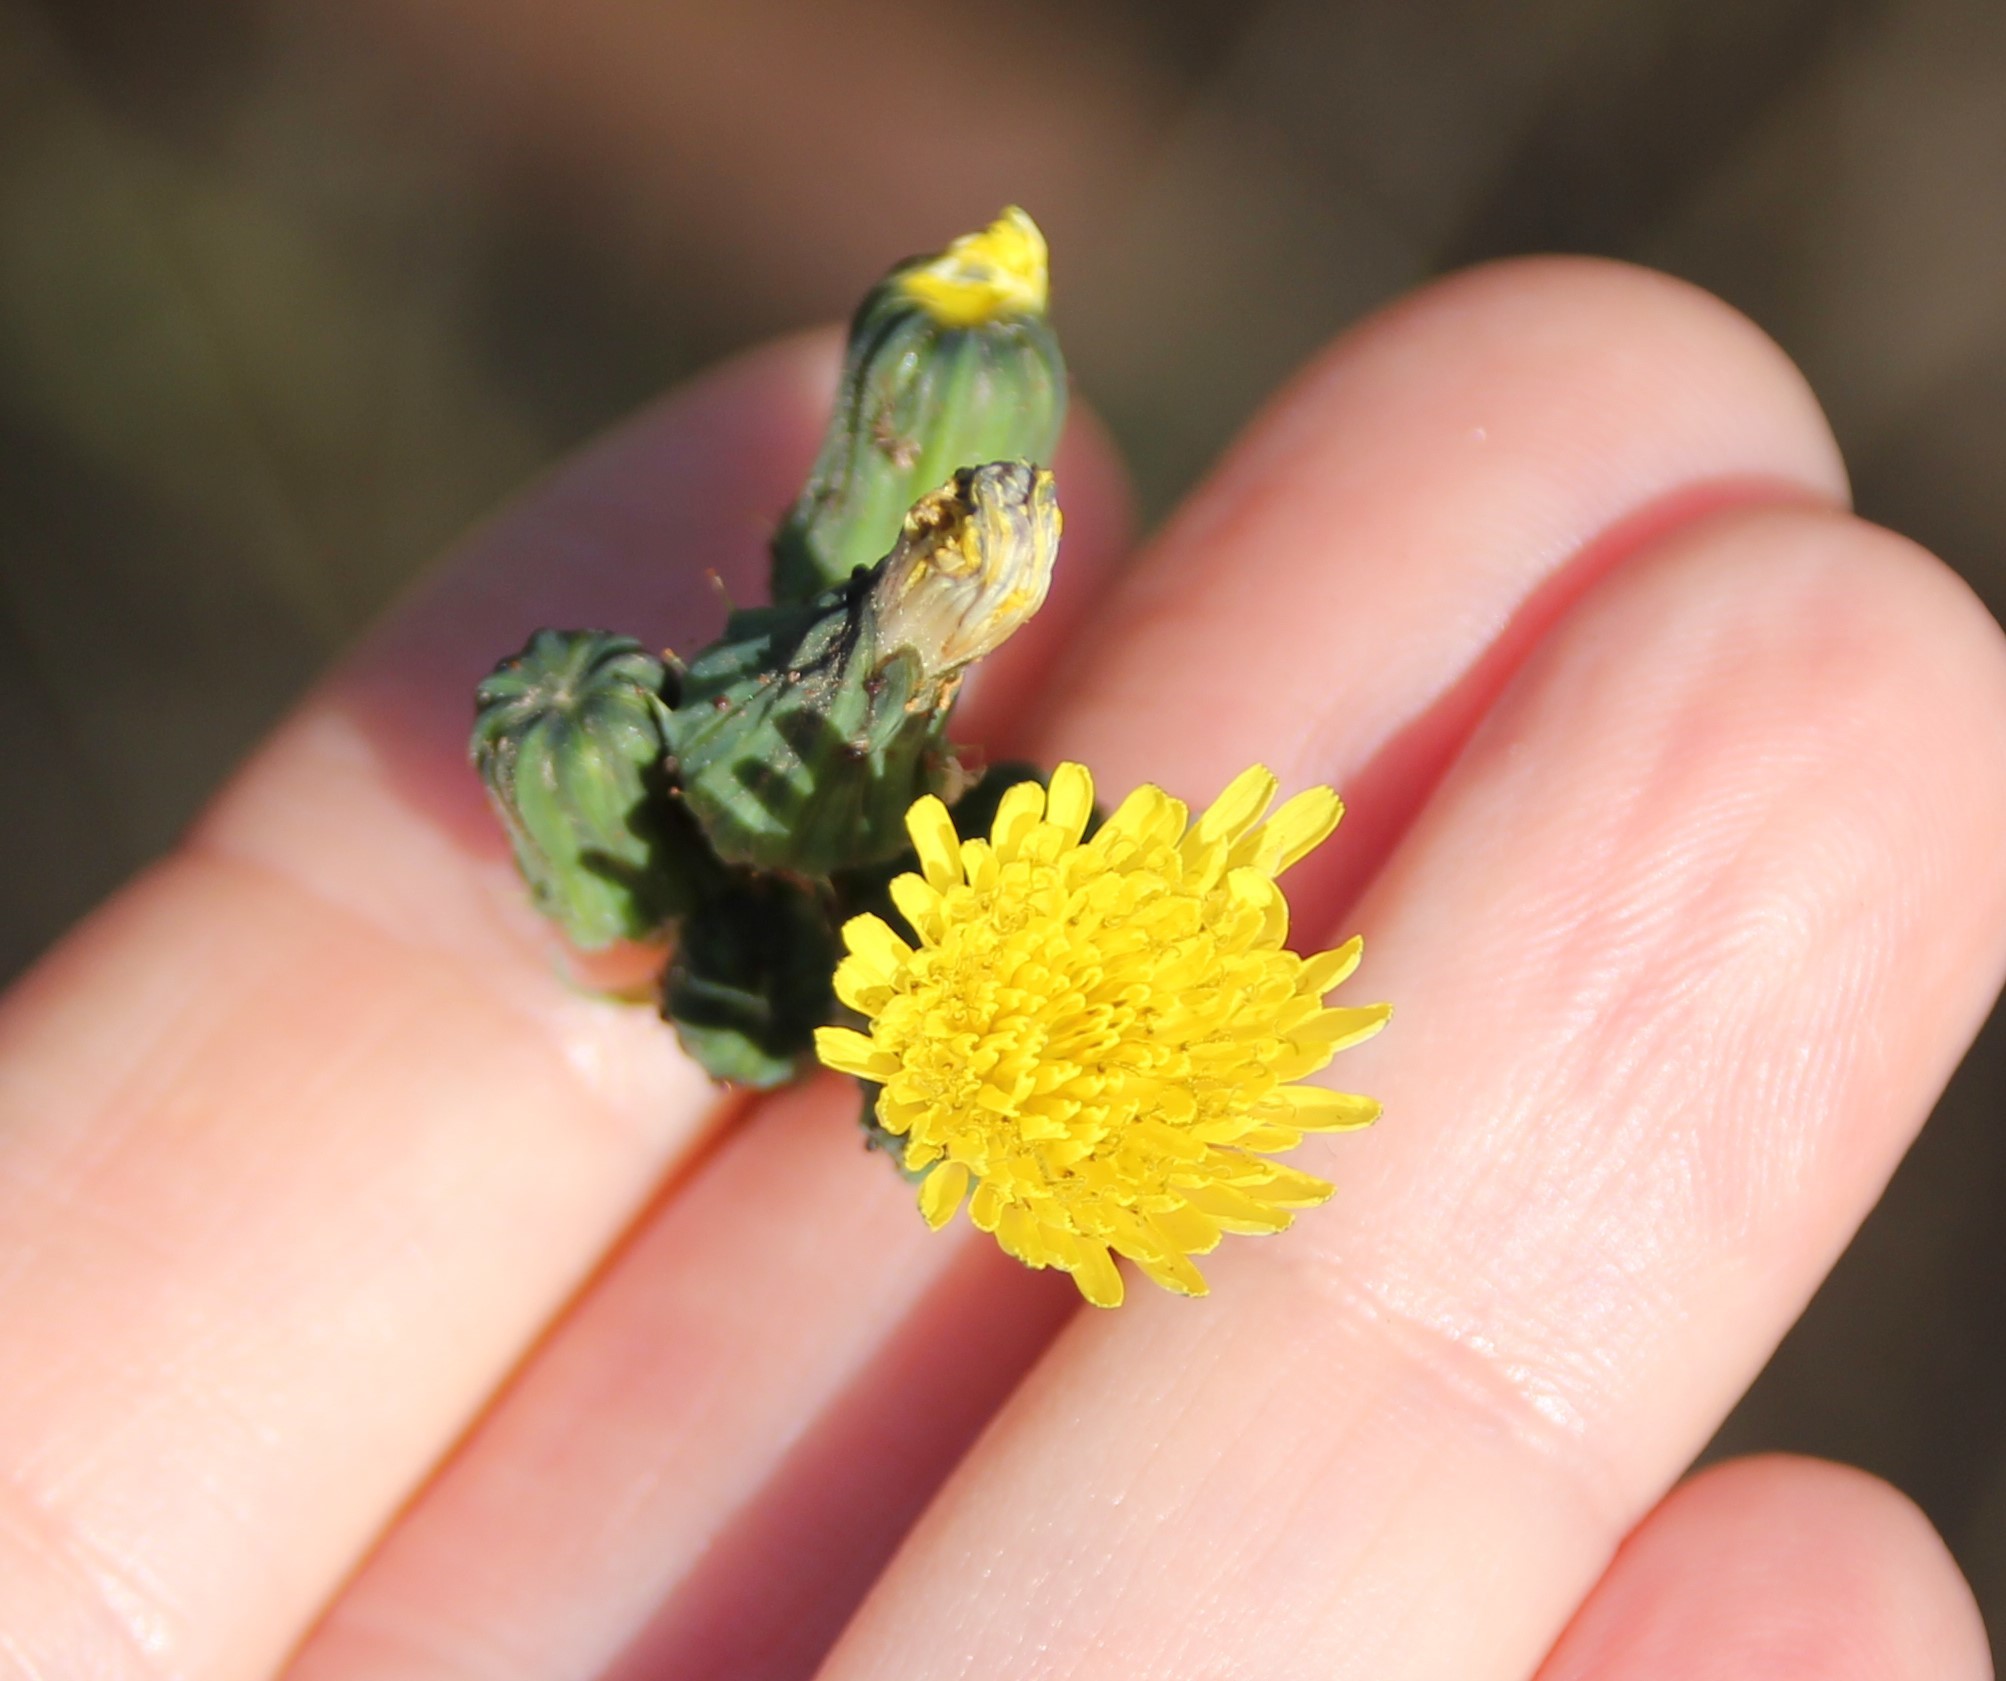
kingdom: Plantae
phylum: Tracheophyta
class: Magnoliopsida
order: Asterales
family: Asteraceae
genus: Sonchus
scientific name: Sonchus oleraceus
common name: Common sowthistle
